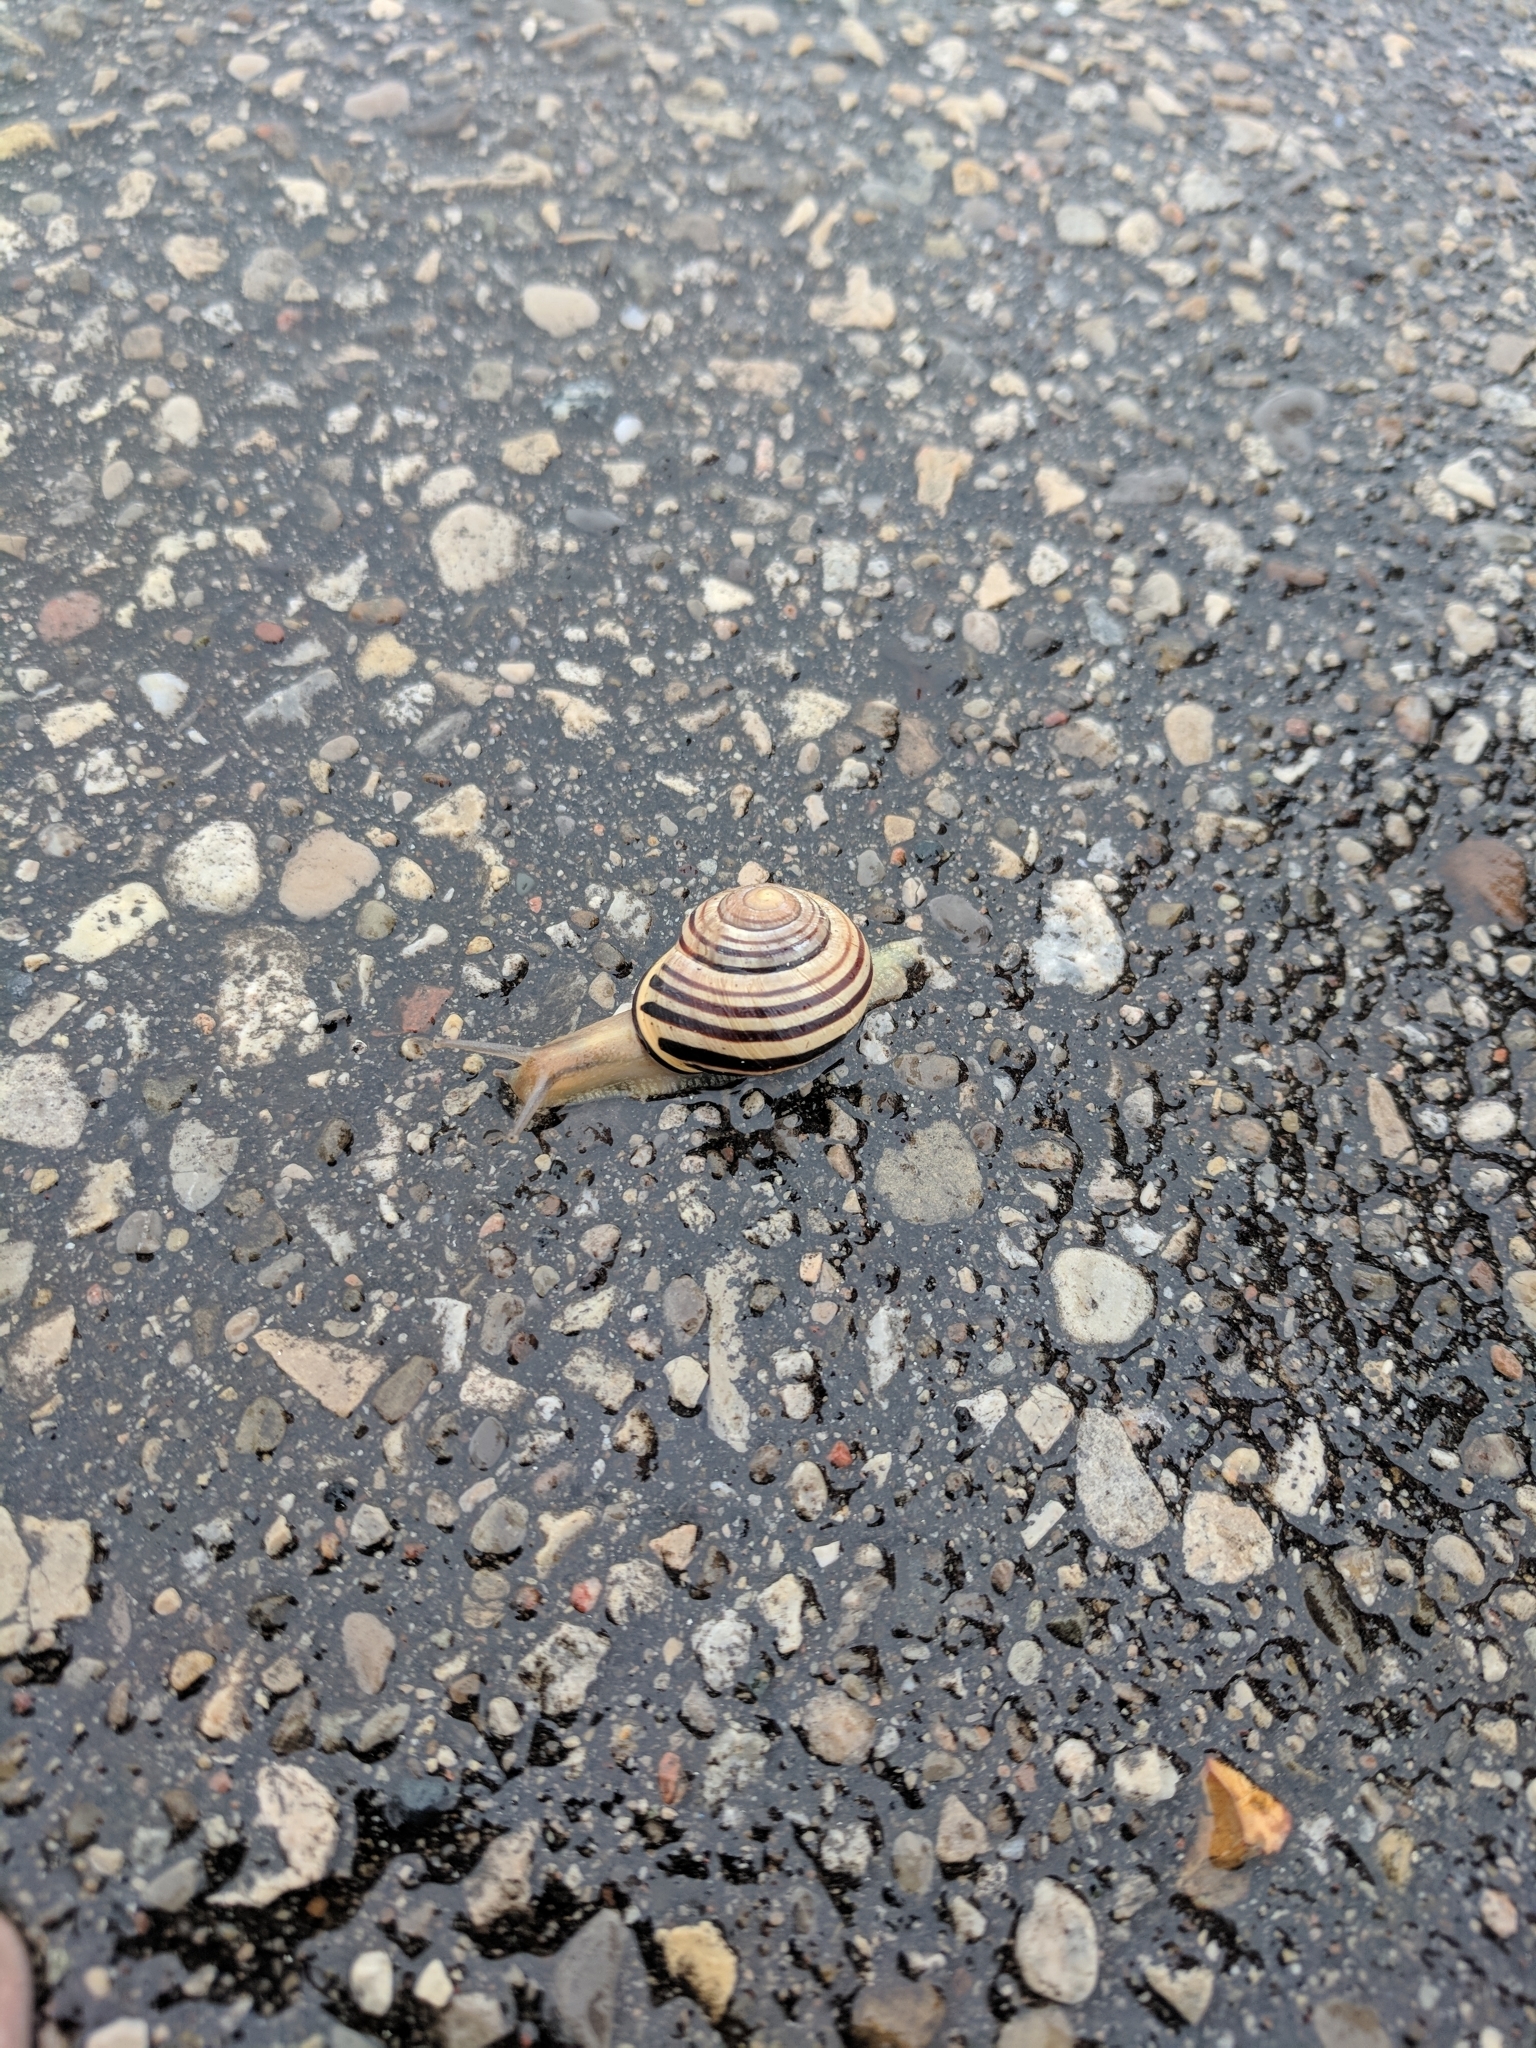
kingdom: Animalia
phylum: Mollusca
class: Gastropoda
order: Stylommatophora
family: Helicidae
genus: Cepaea
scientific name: Cepaea nemoralis
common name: Grovesnail
